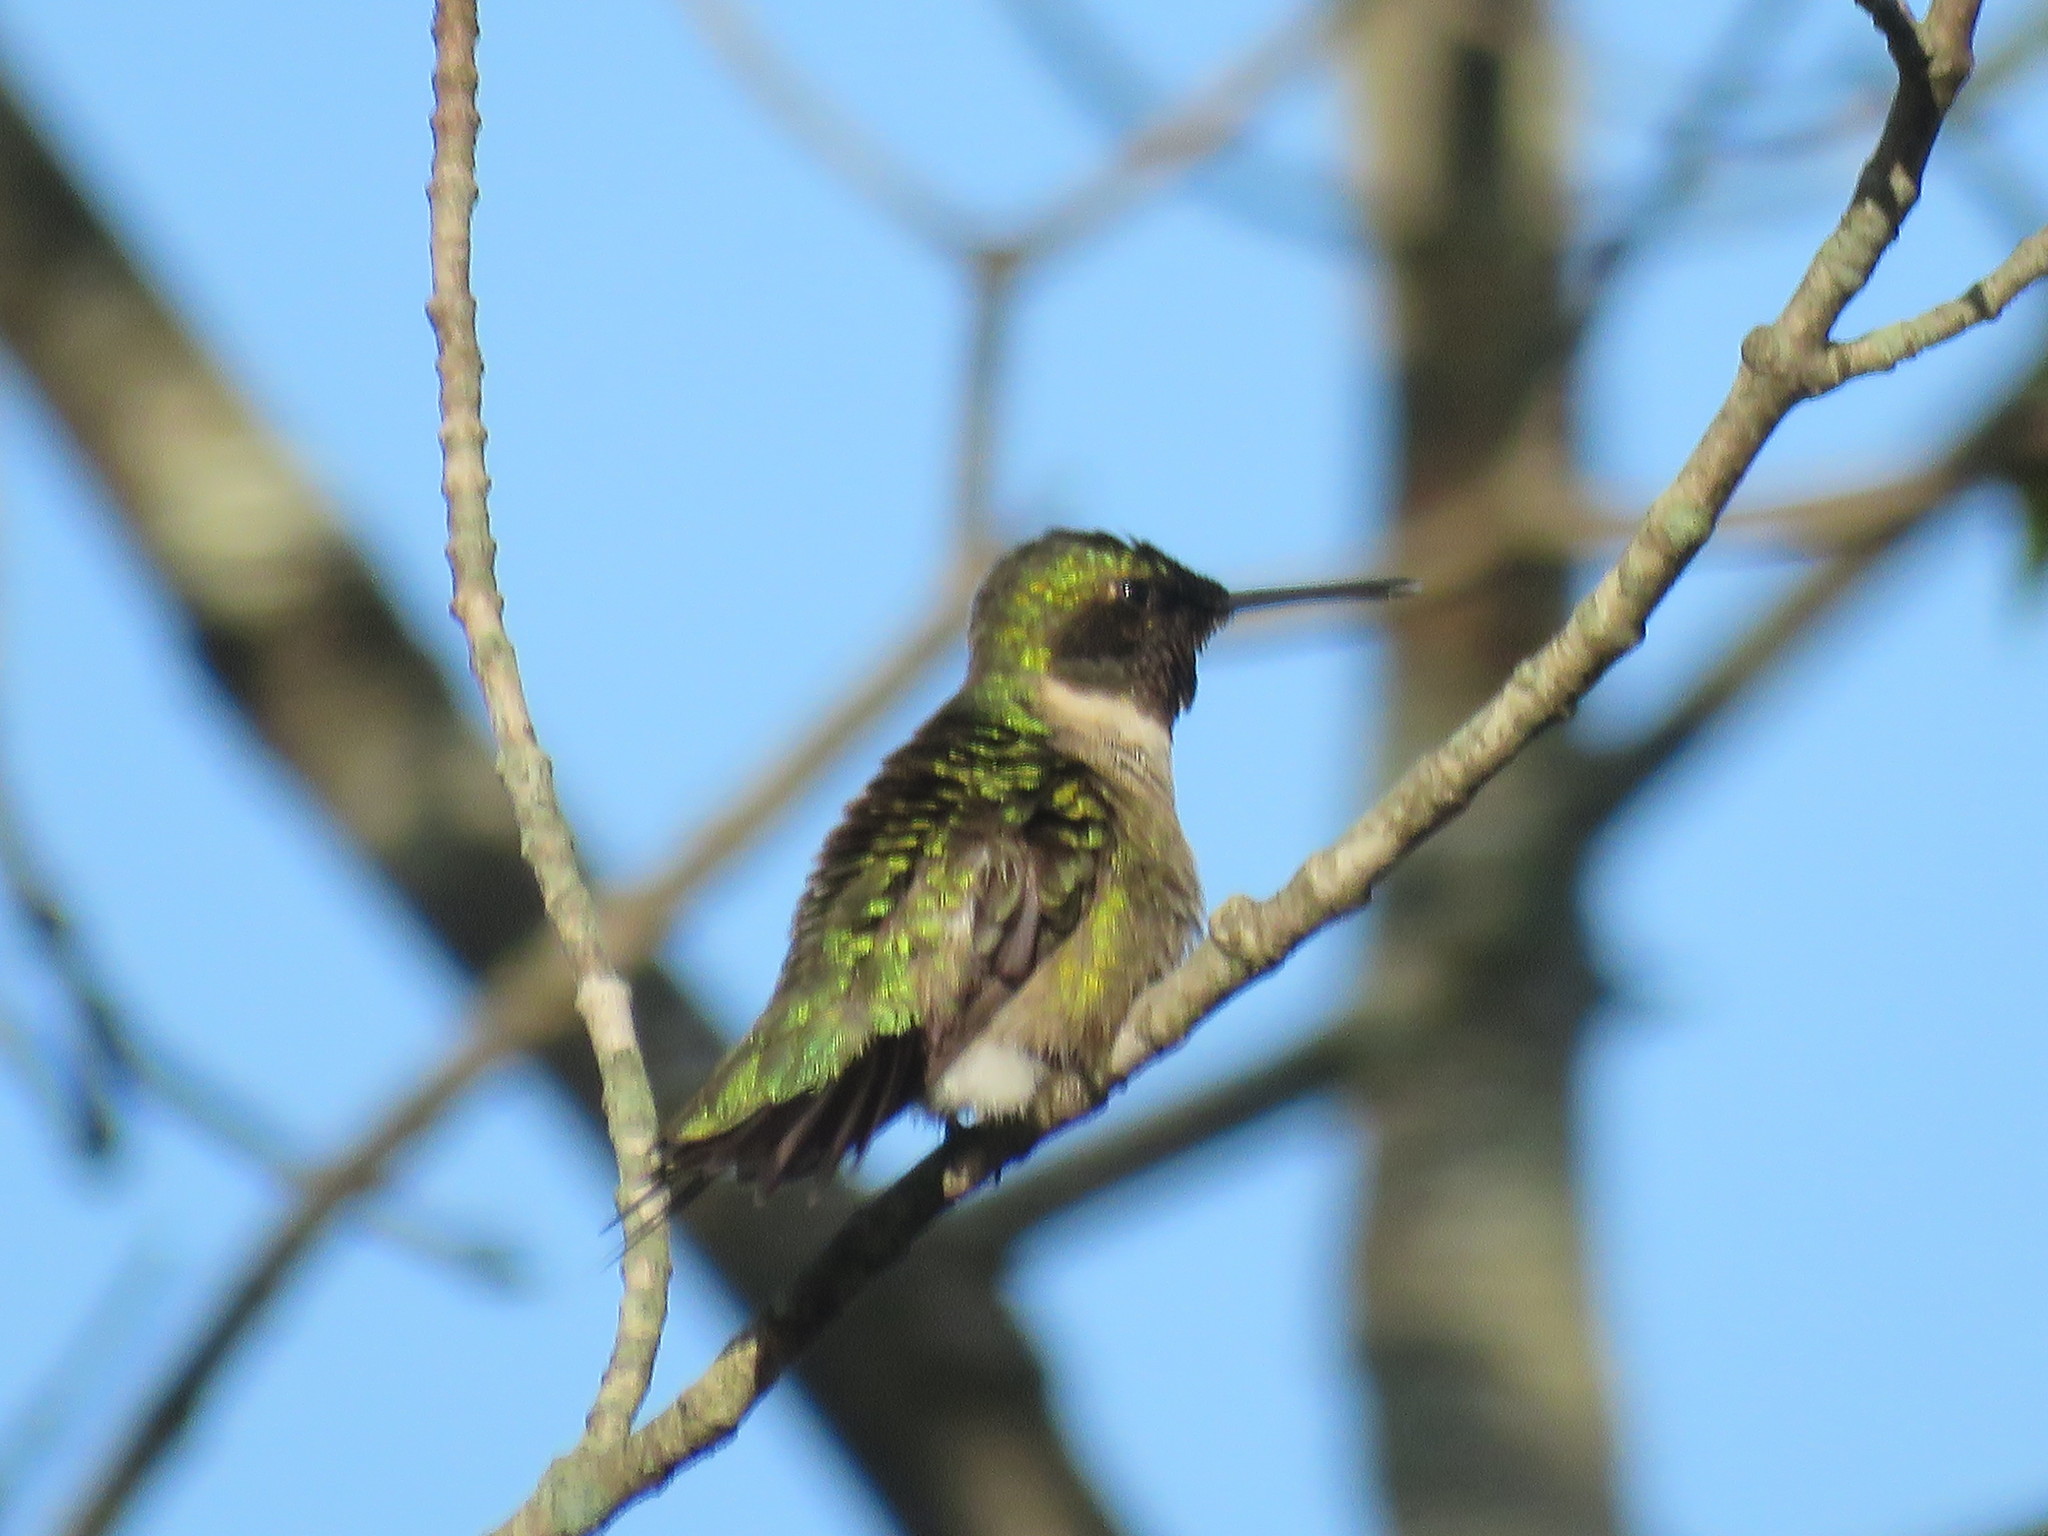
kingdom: Animalia
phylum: Chordata
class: Aves
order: Apodiformes
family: Trochilidae
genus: Archilochus
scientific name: Archilochus colubris
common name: Ruby-throated hummingbird
